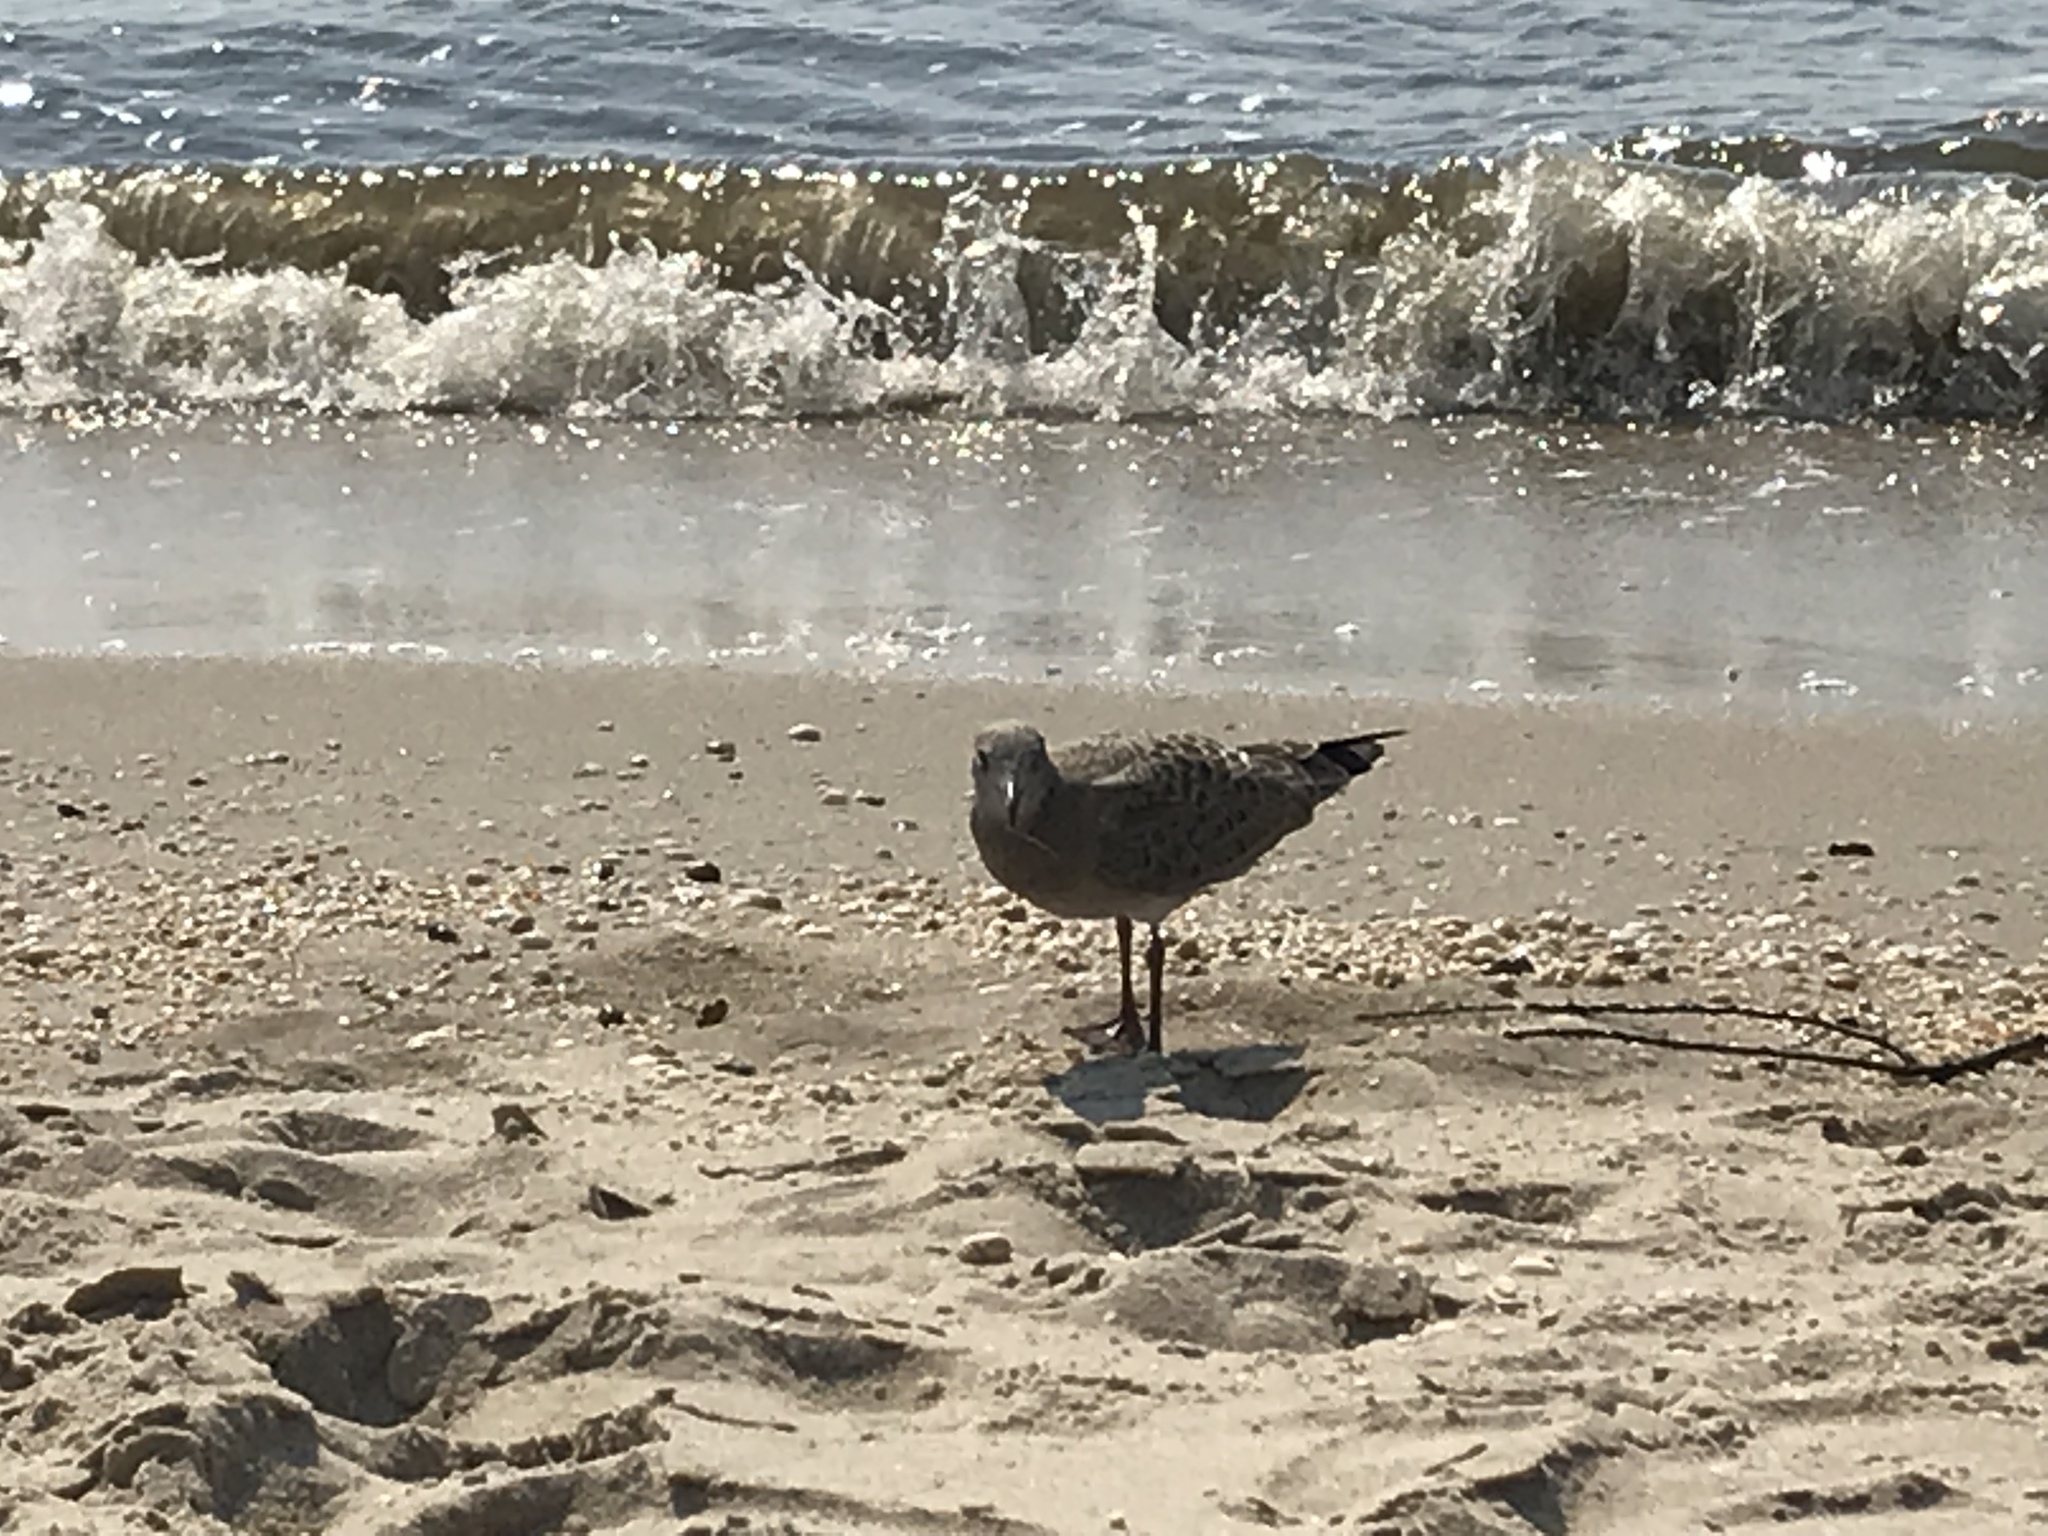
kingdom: Animalia
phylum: Chordata
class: Aves
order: Charadriiformes
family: Laridae
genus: Leucophaeus
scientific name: Leucophaeus atricilla
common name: Laughing gull
